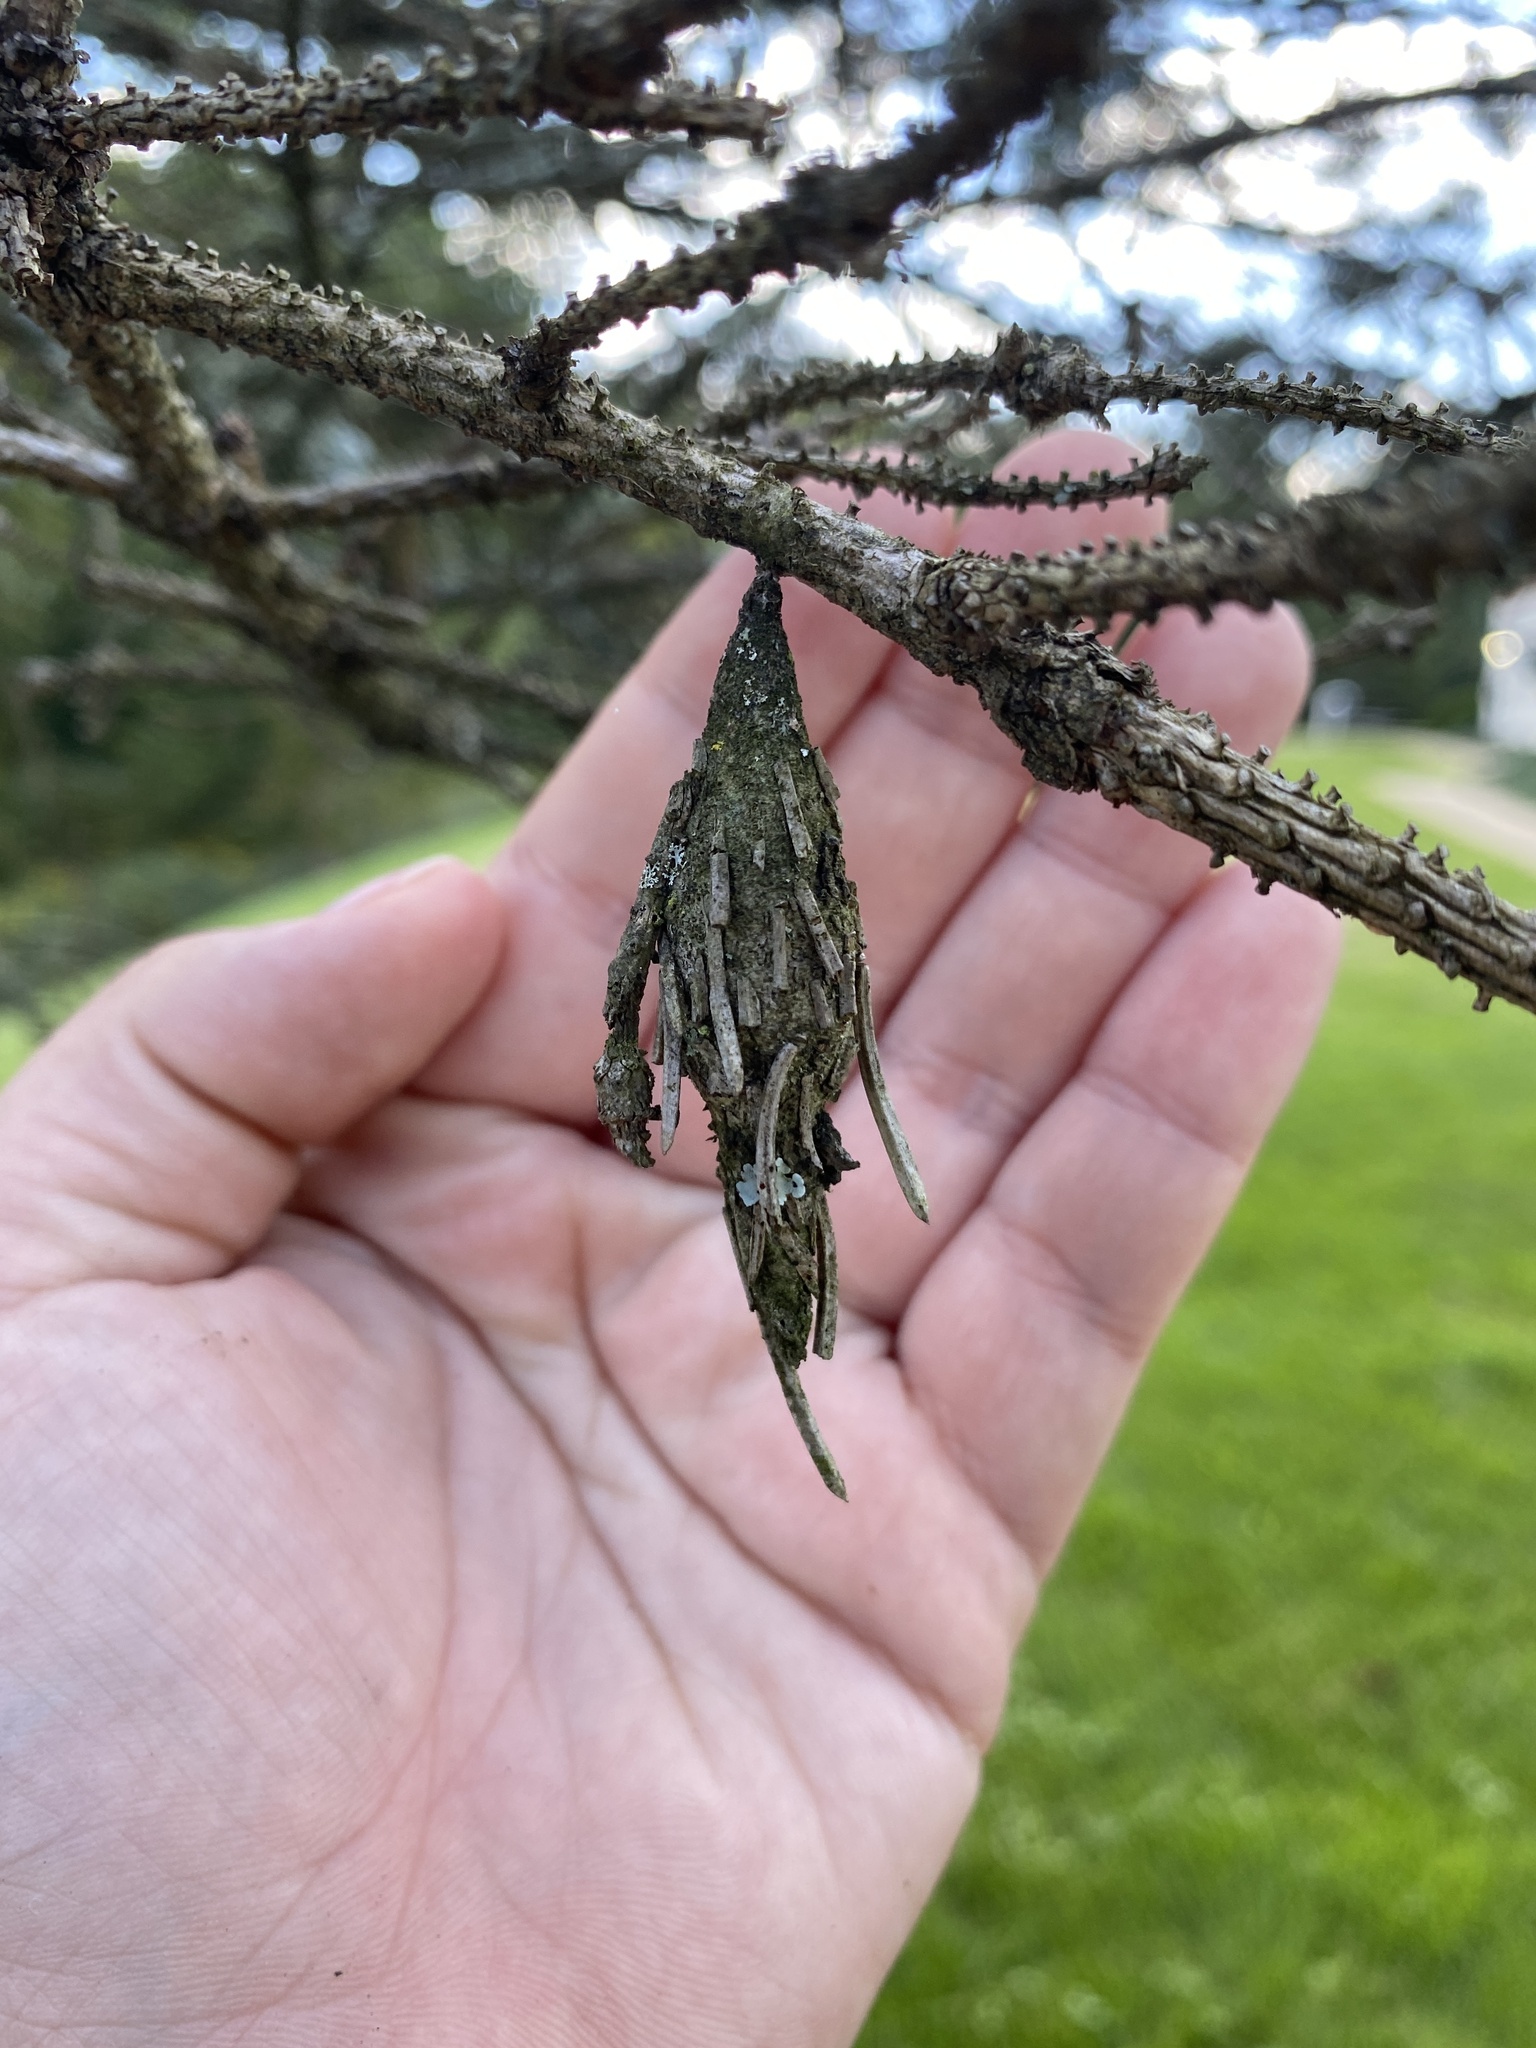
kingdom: Animalia
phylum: Arthropoda
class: Insecta
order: Lepidoptera
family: Psychidae
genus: Thyridopteryx
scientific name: Thyridopteryx ephemeraeformis
